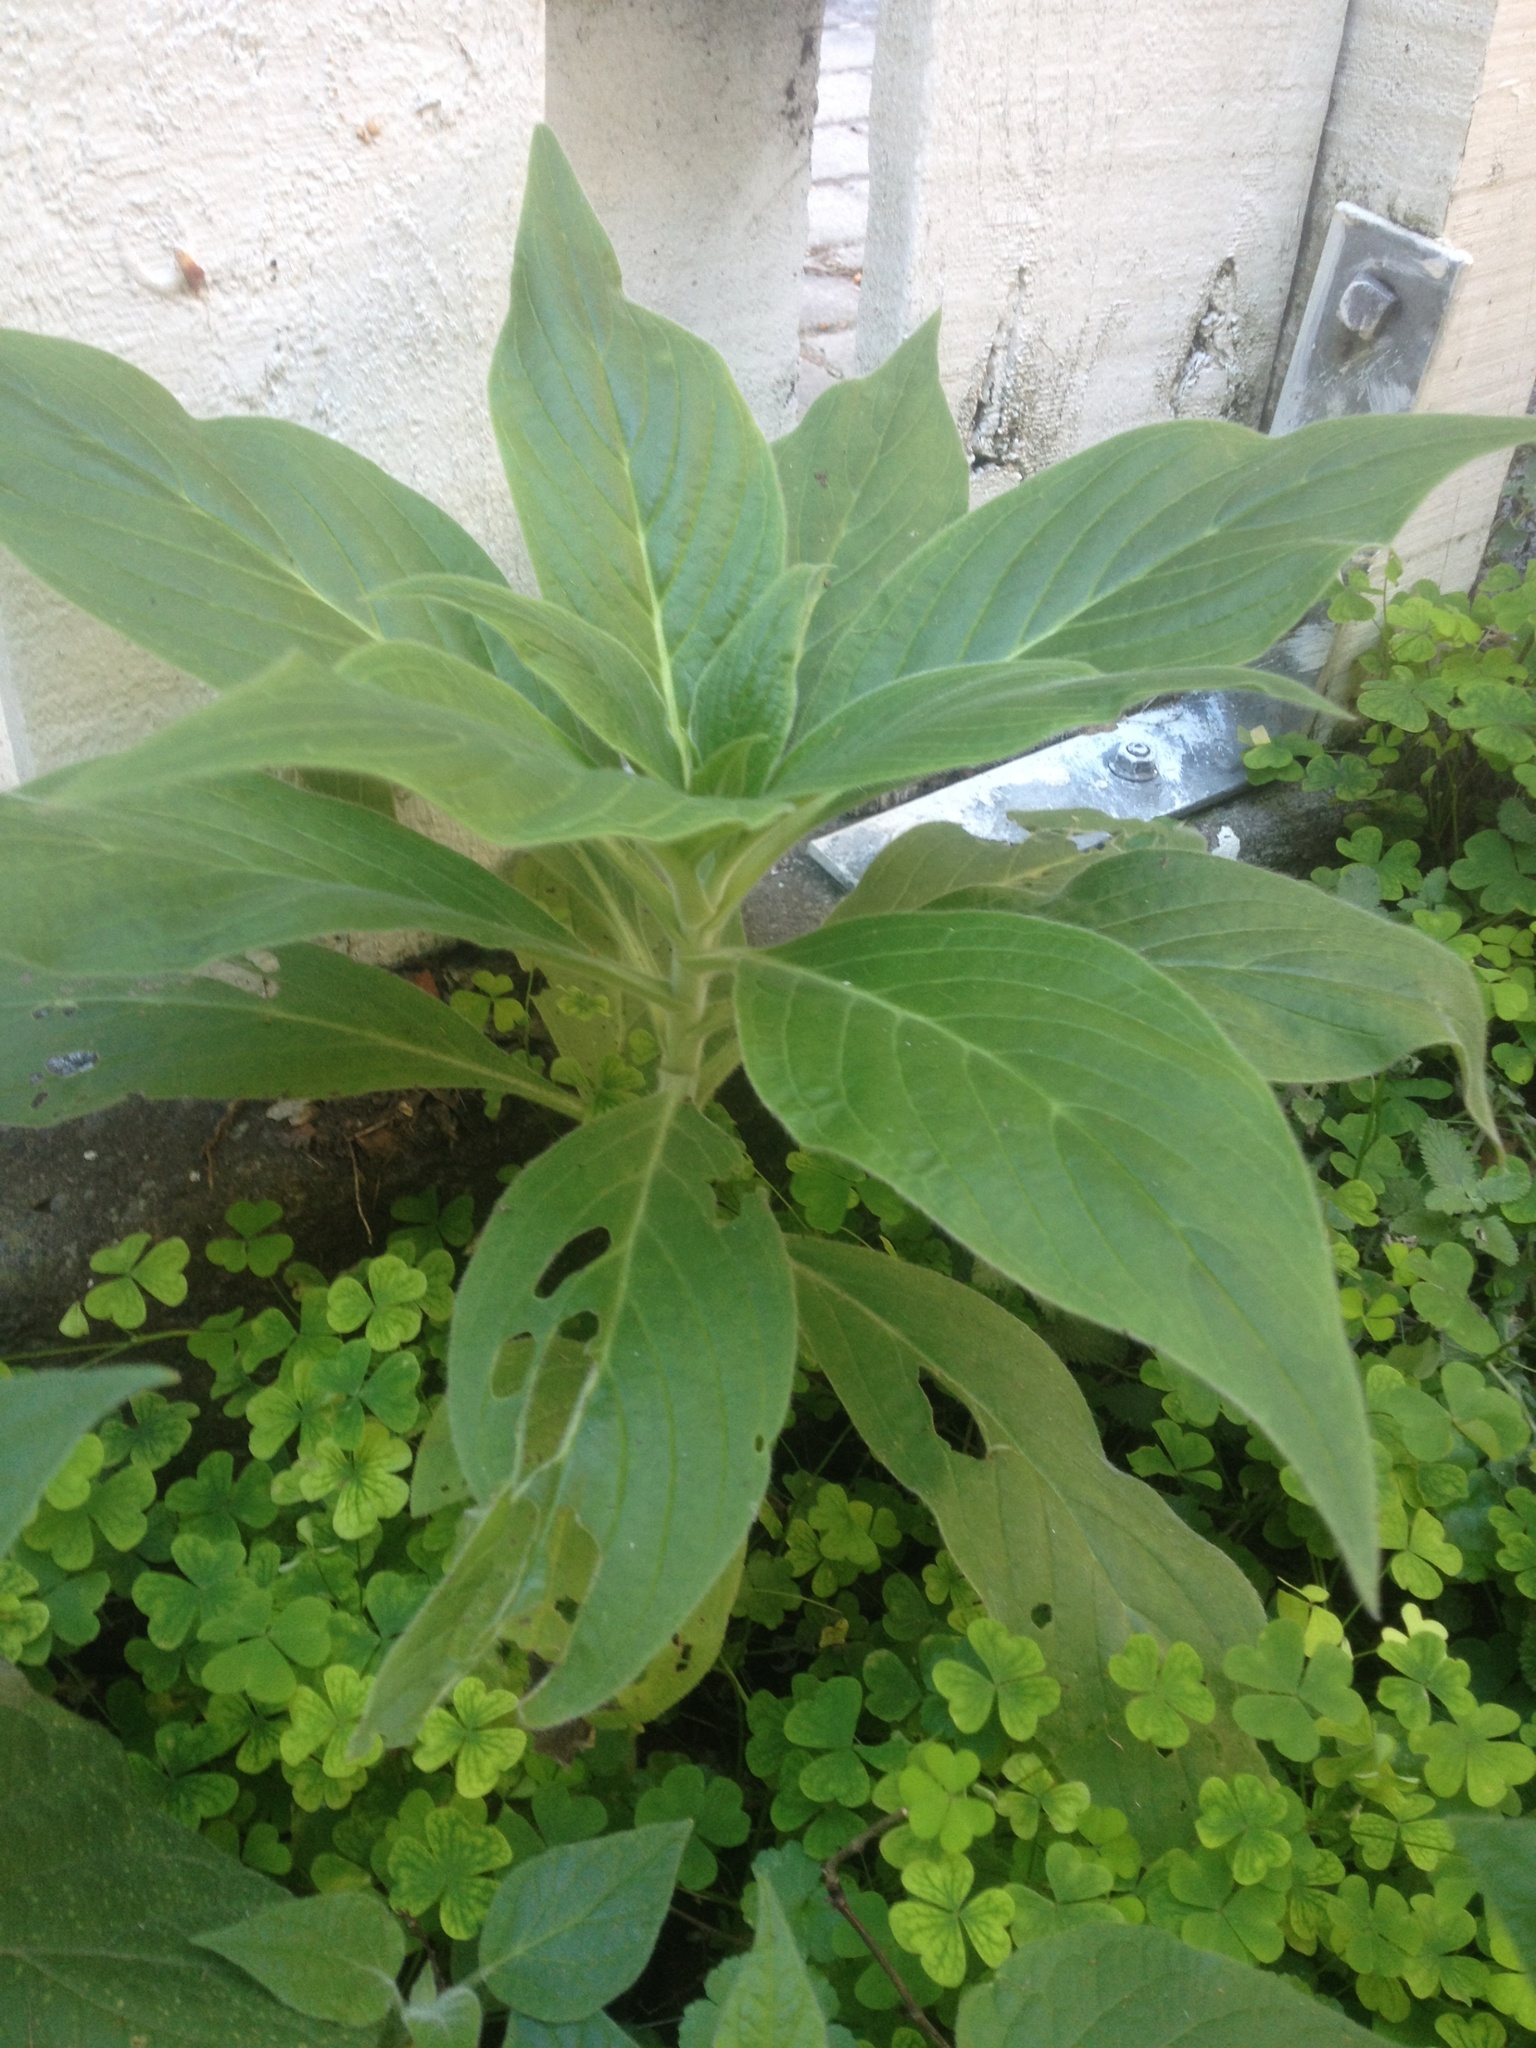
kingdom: Plantae
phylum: Tracheophyta
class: Magnoliopsida
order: Boraginales
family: Boraginaceae
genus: Echium
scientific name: Echium candicans
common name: Pride of madeira
